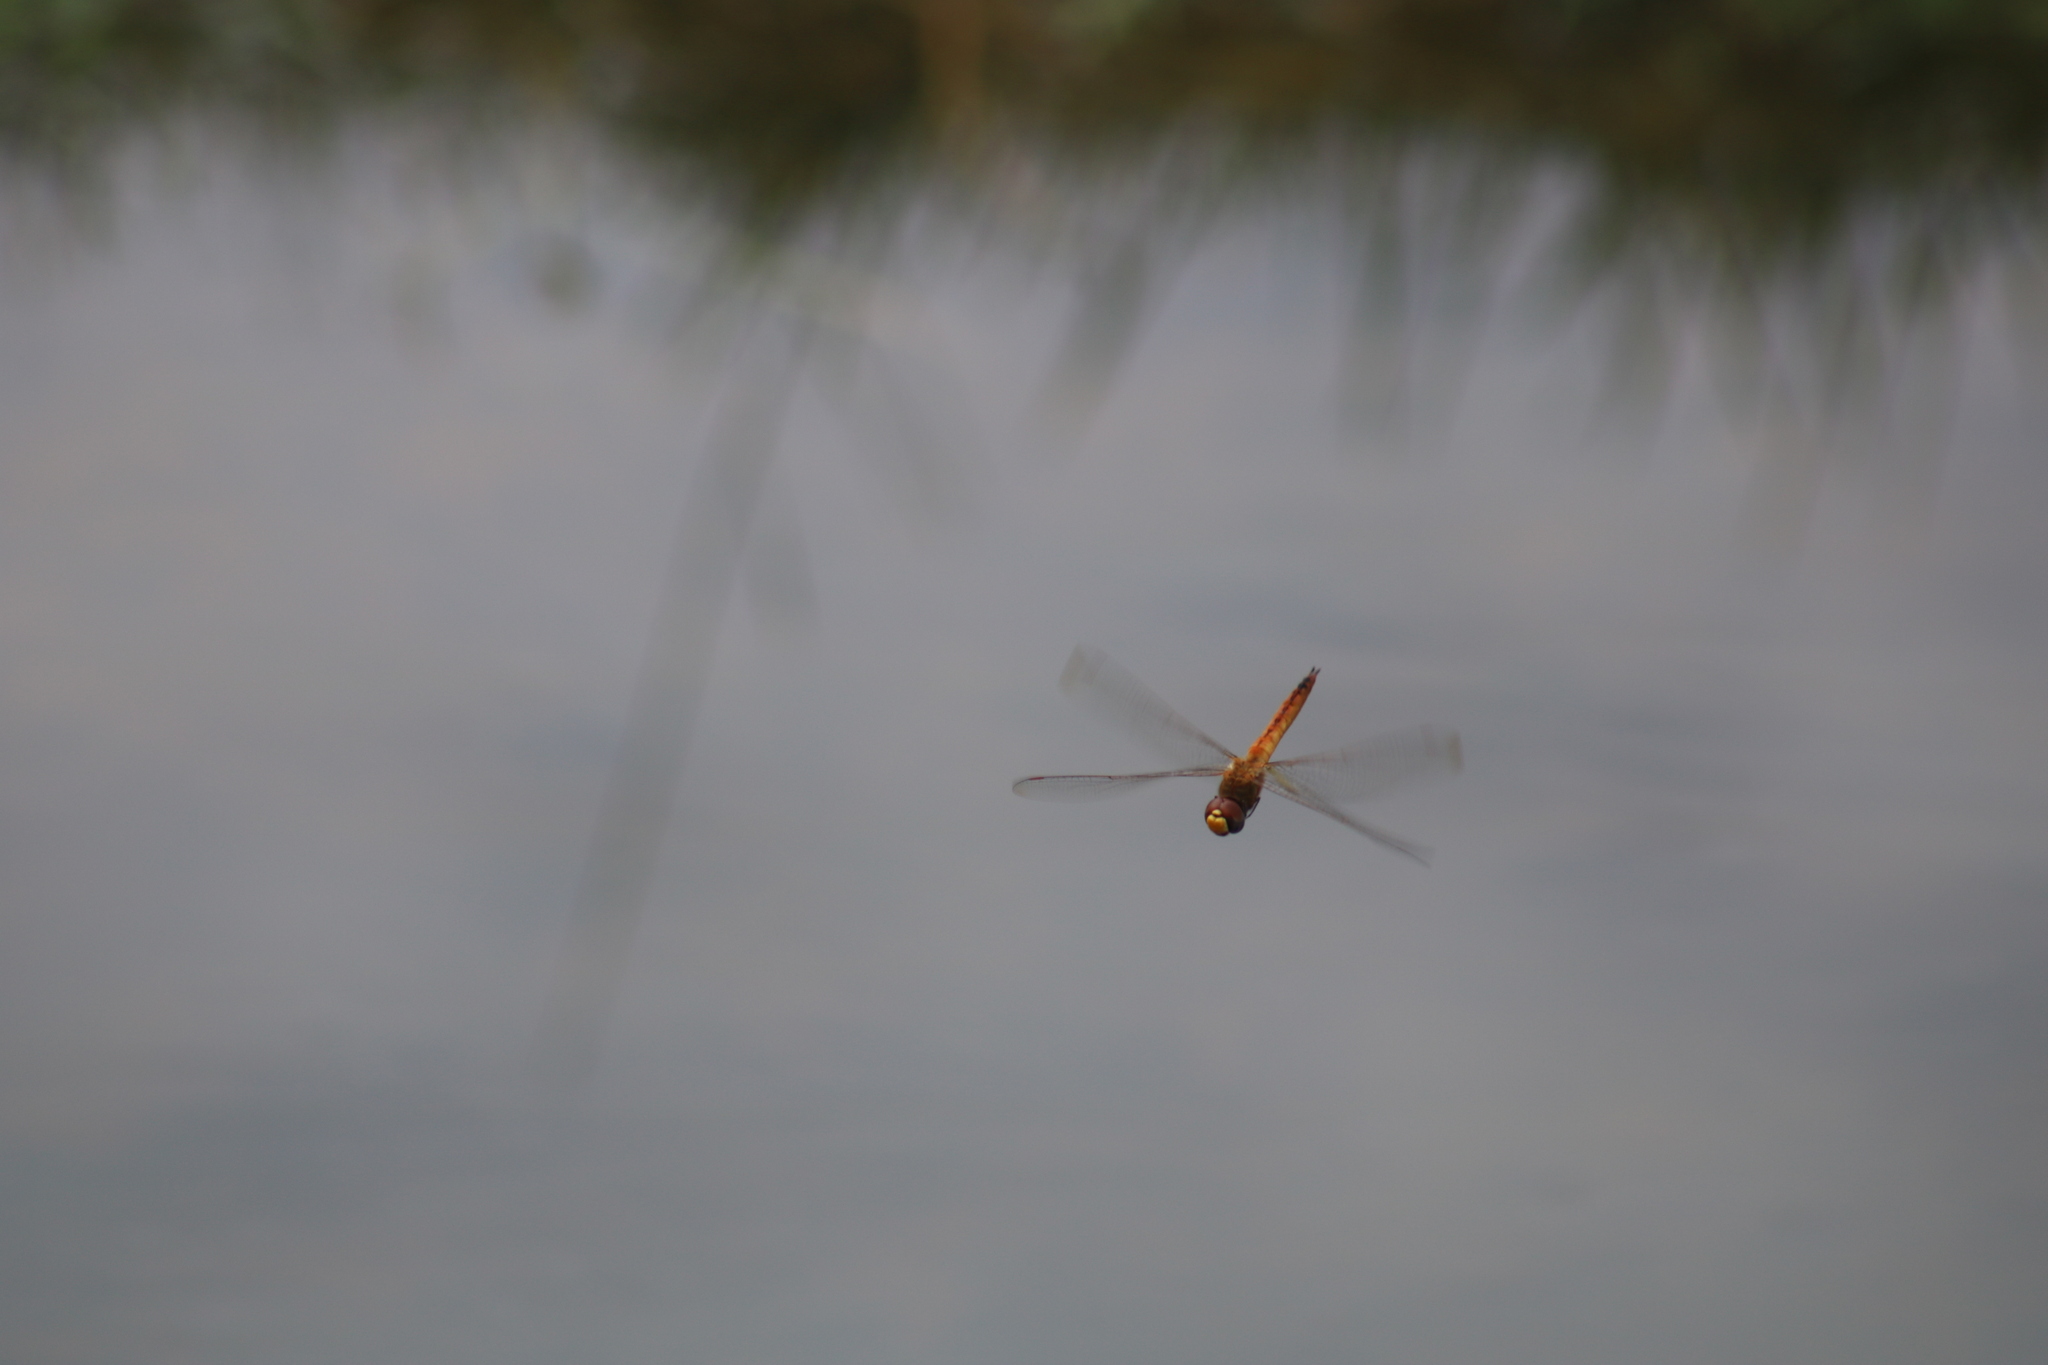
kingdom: Animalia
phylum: Arthropoda
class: Insecta
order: Odonata
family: Libellulidae
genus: Pantala
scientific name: Pantala flavescens
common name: Wandering glider
